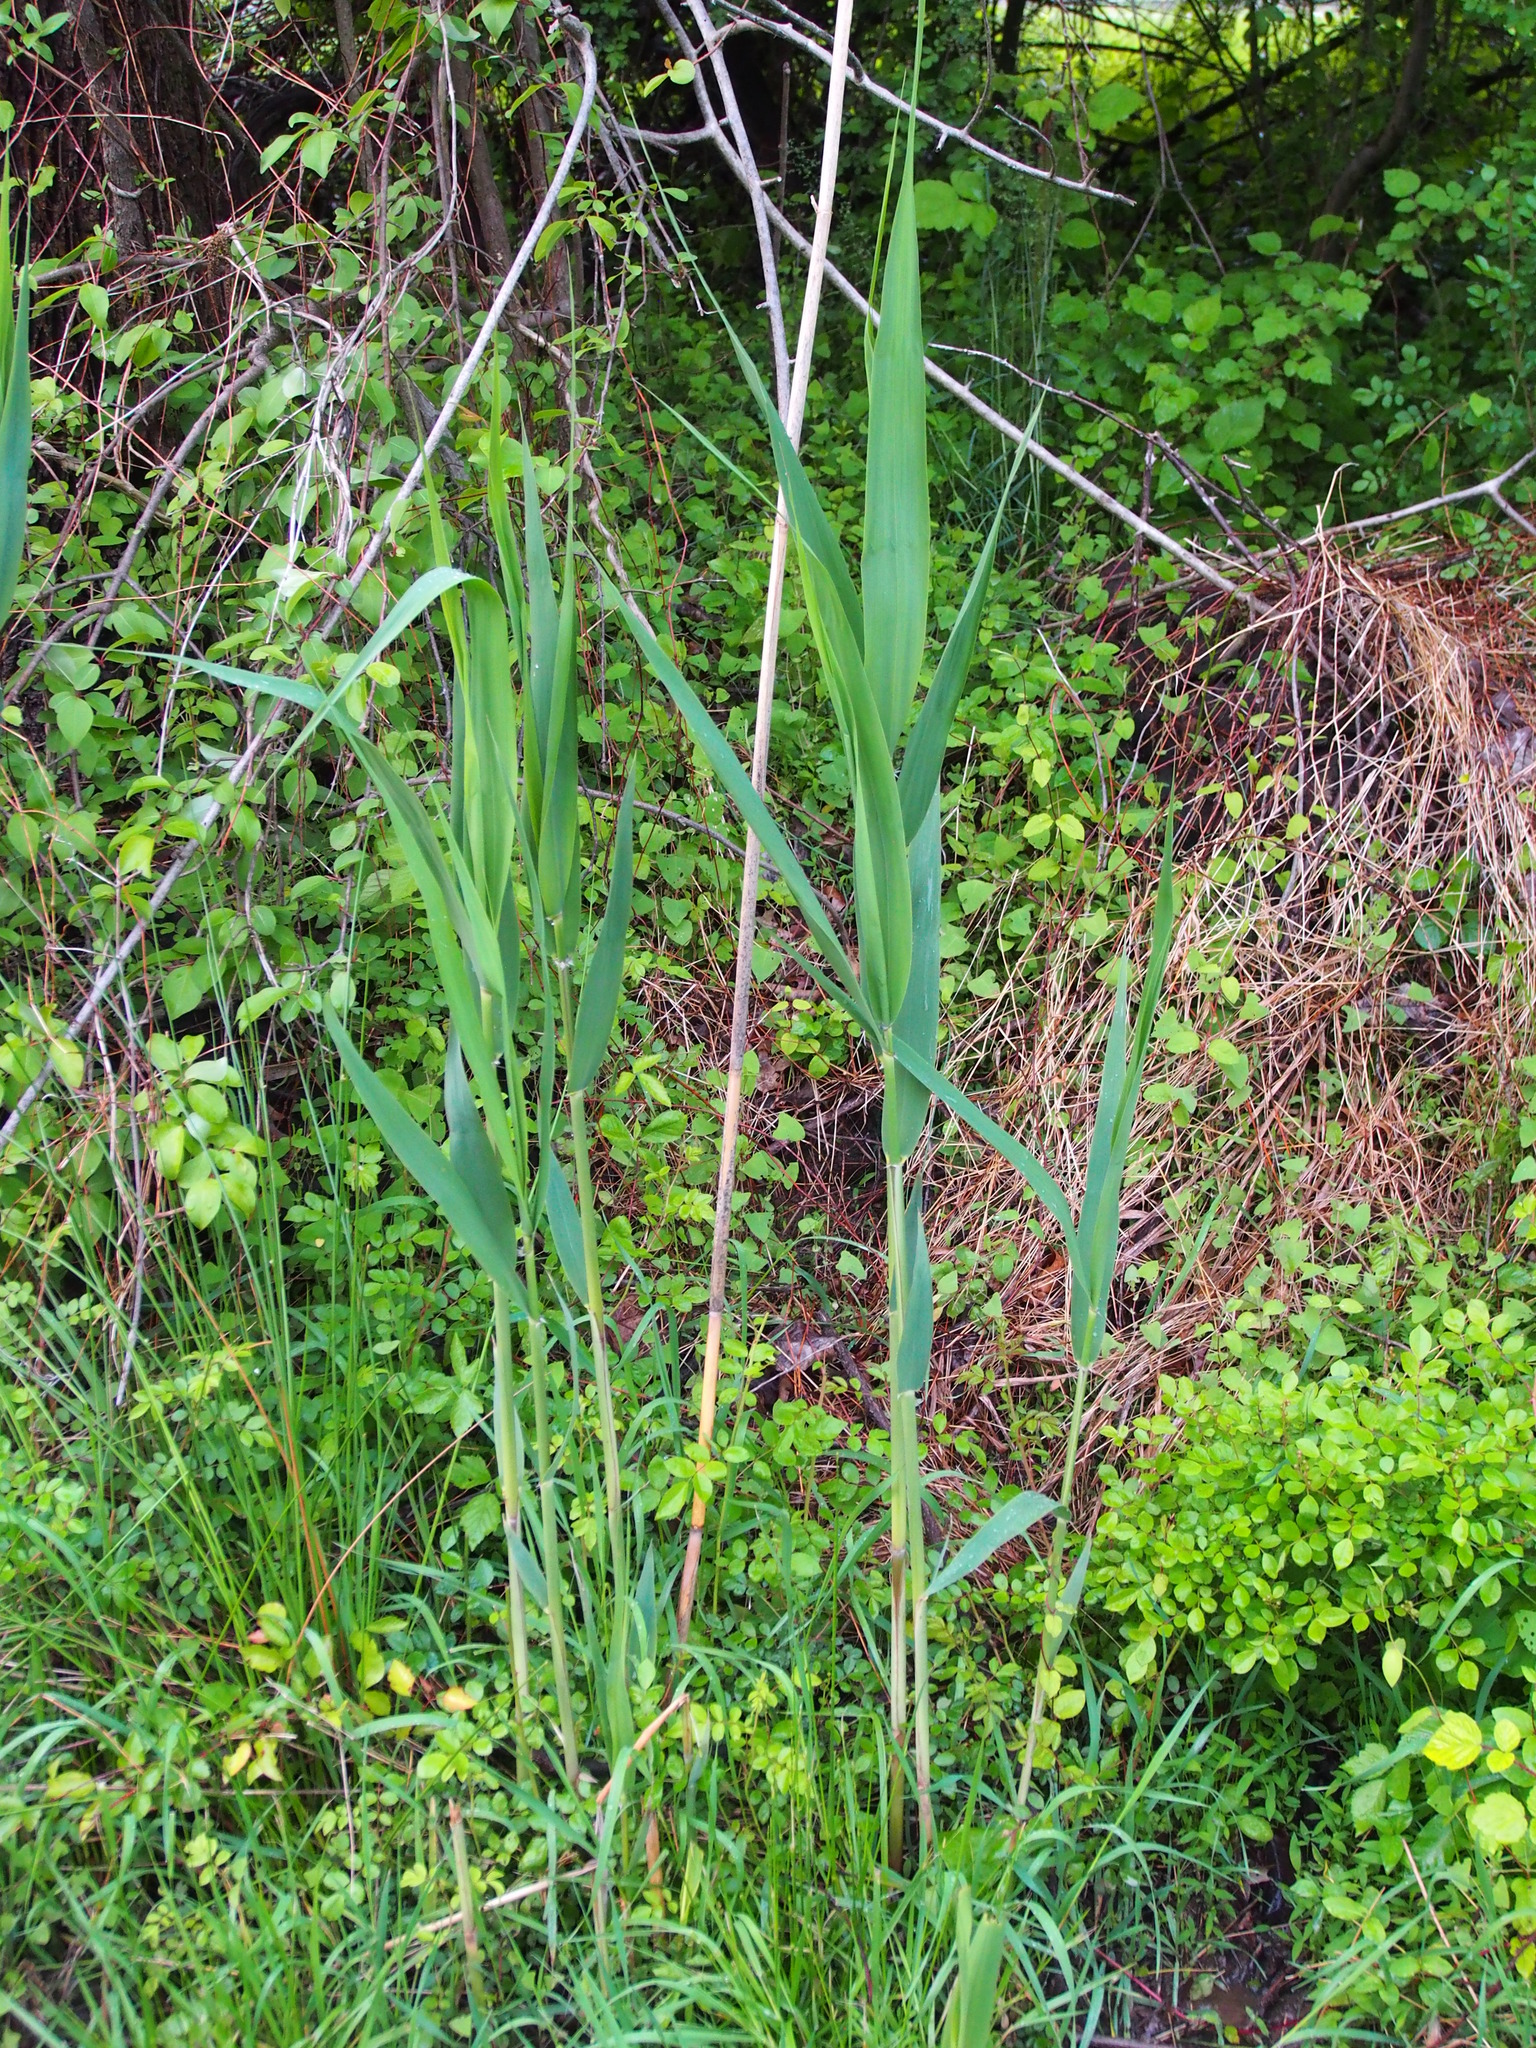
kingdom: Plantae
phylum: Tracheophyta
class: Liliopsida
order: Poales
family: Poaceae
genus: Phragmites
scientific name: Phragmites australis
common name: Common reed
